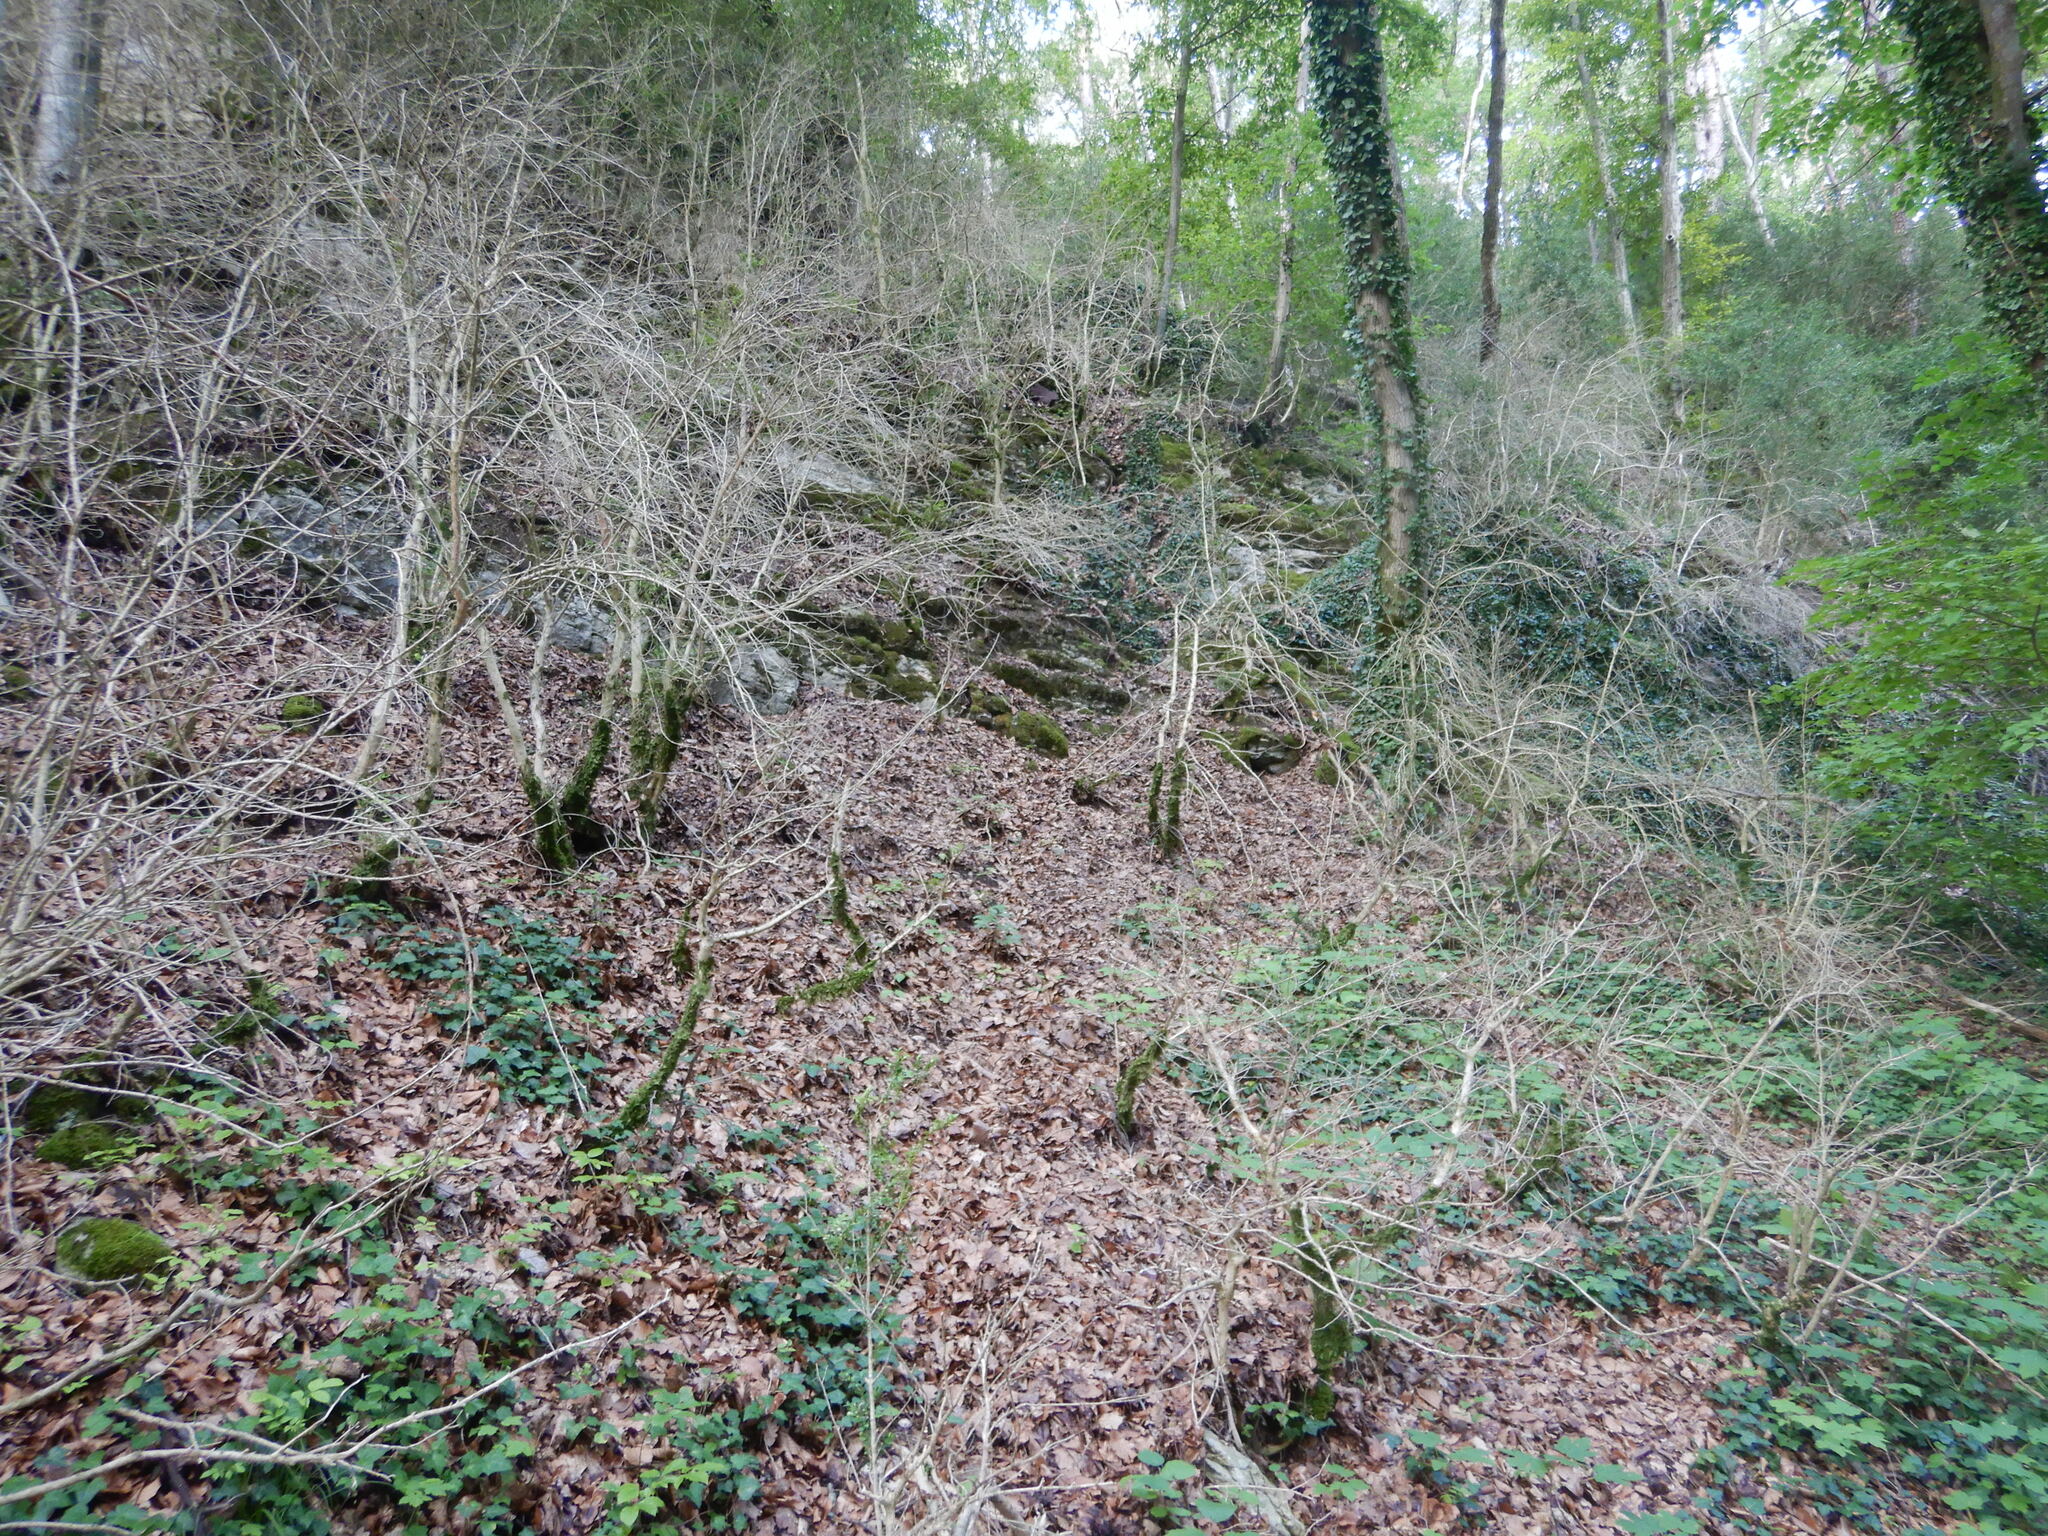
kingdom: Plantae
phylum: Tracheophyta
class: Magnoliopsida
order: Buxales
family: Buxaceae
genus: Buxus
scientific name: Buxus sempervirens
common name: Box
